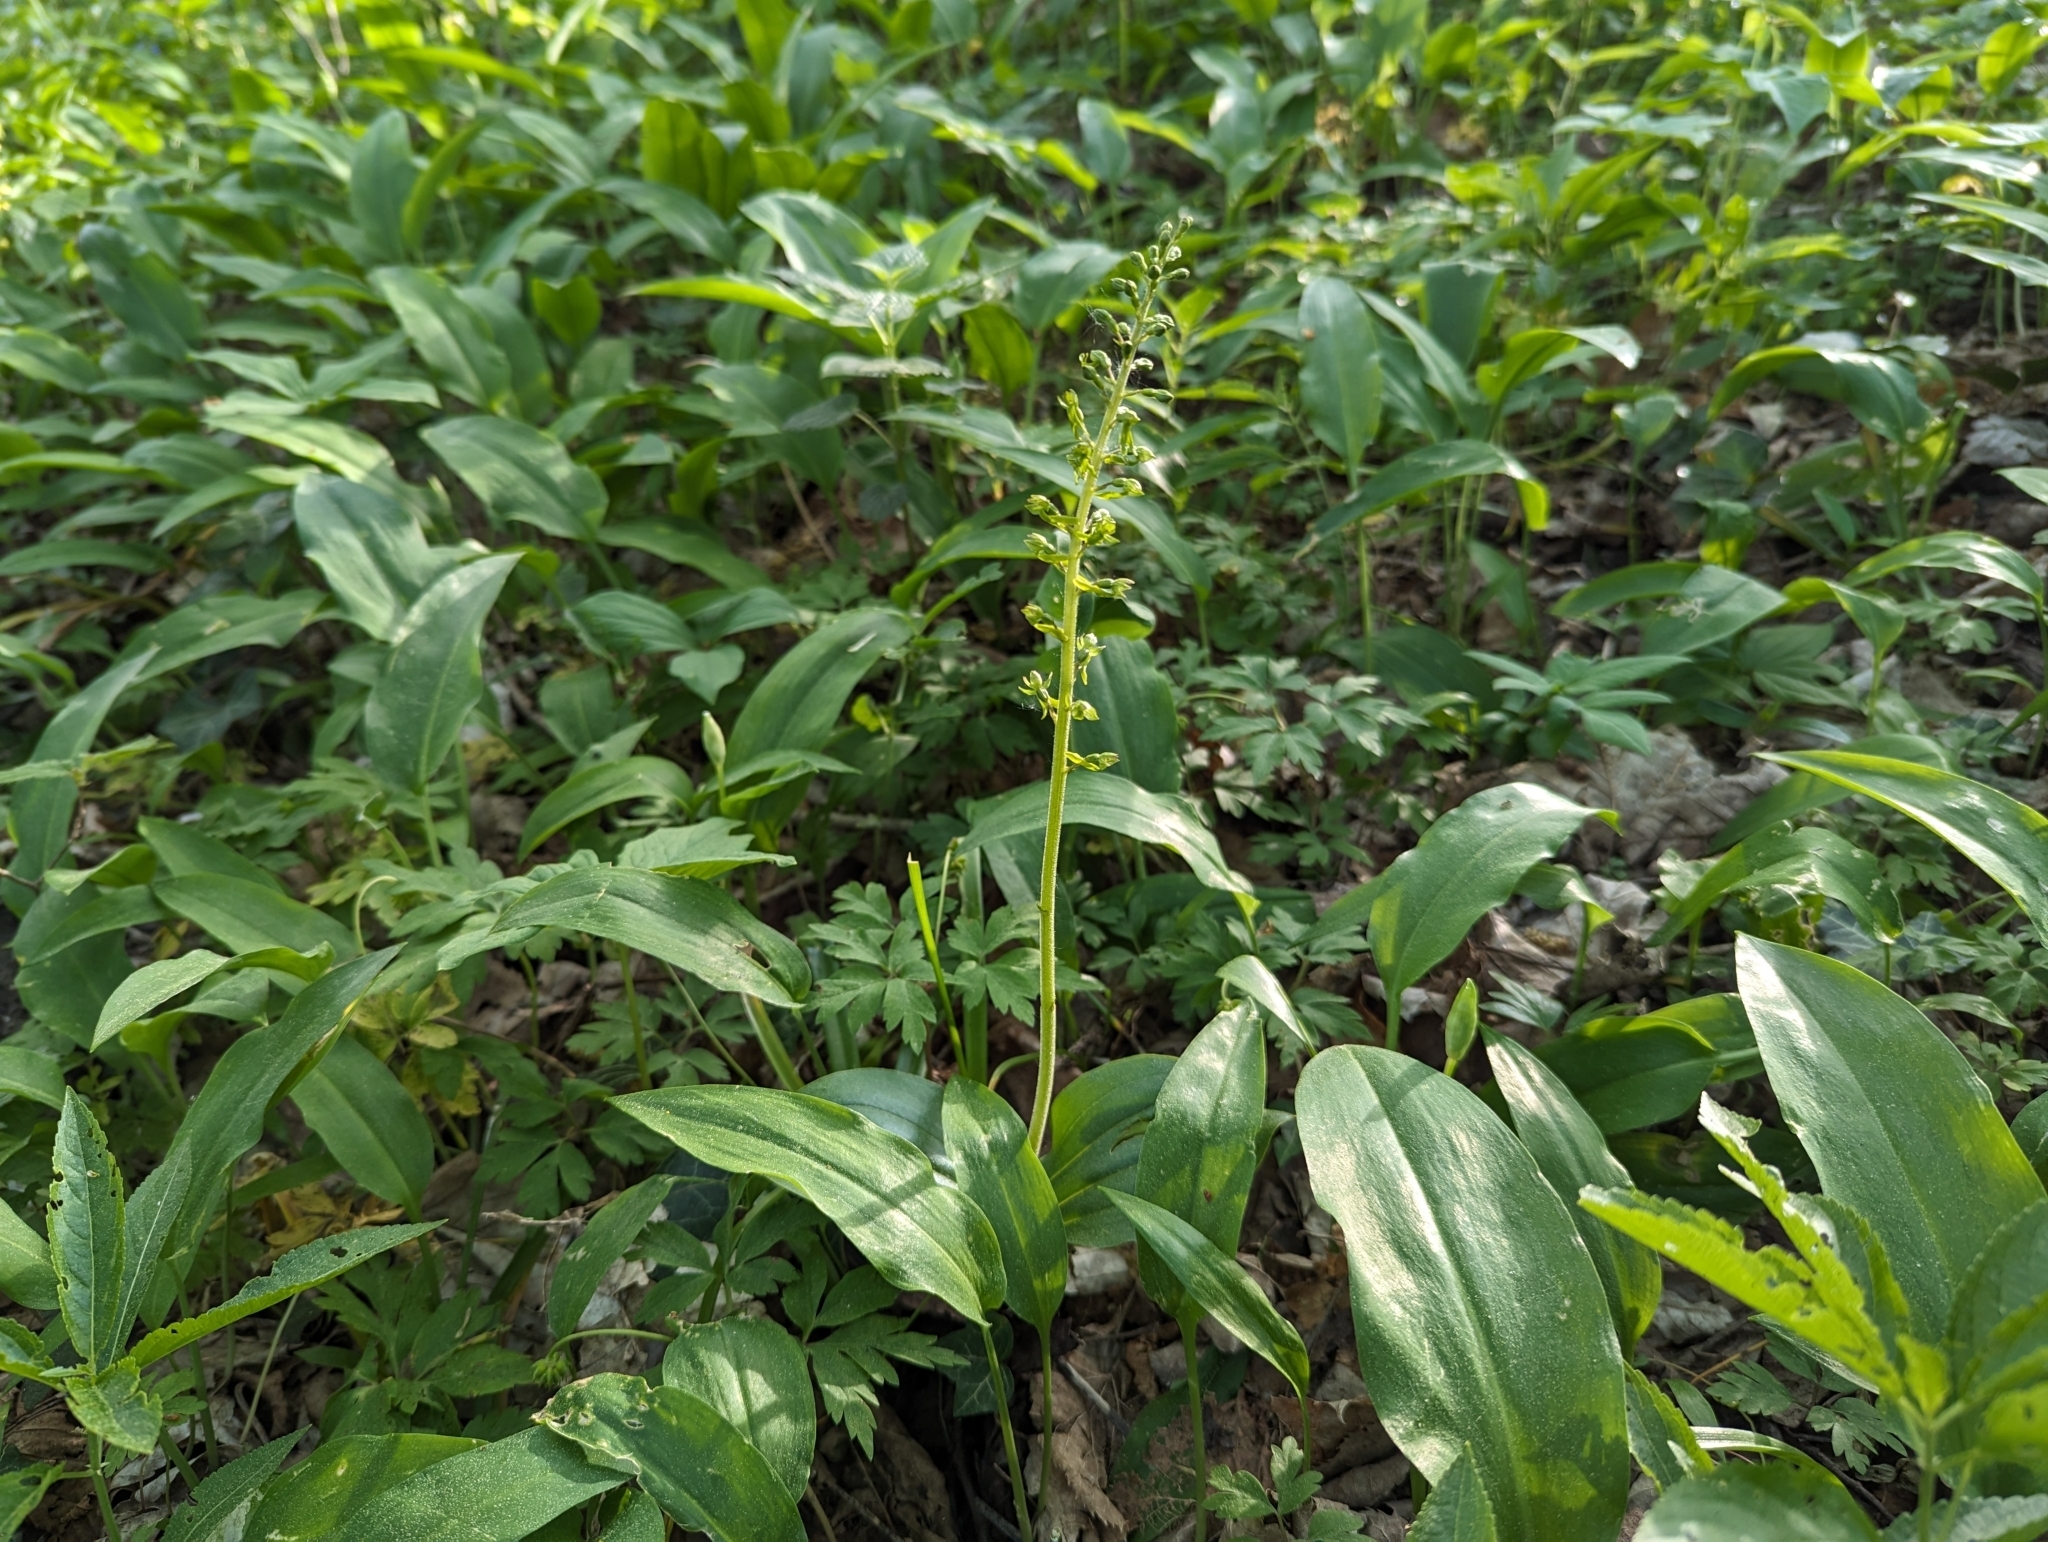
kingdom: Plantae
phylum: Tracheophyta
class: Liliopsida
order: Asparagales
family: Orchidaceae
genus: Neottia
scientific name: Neottia ovata
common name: Common twayblade
